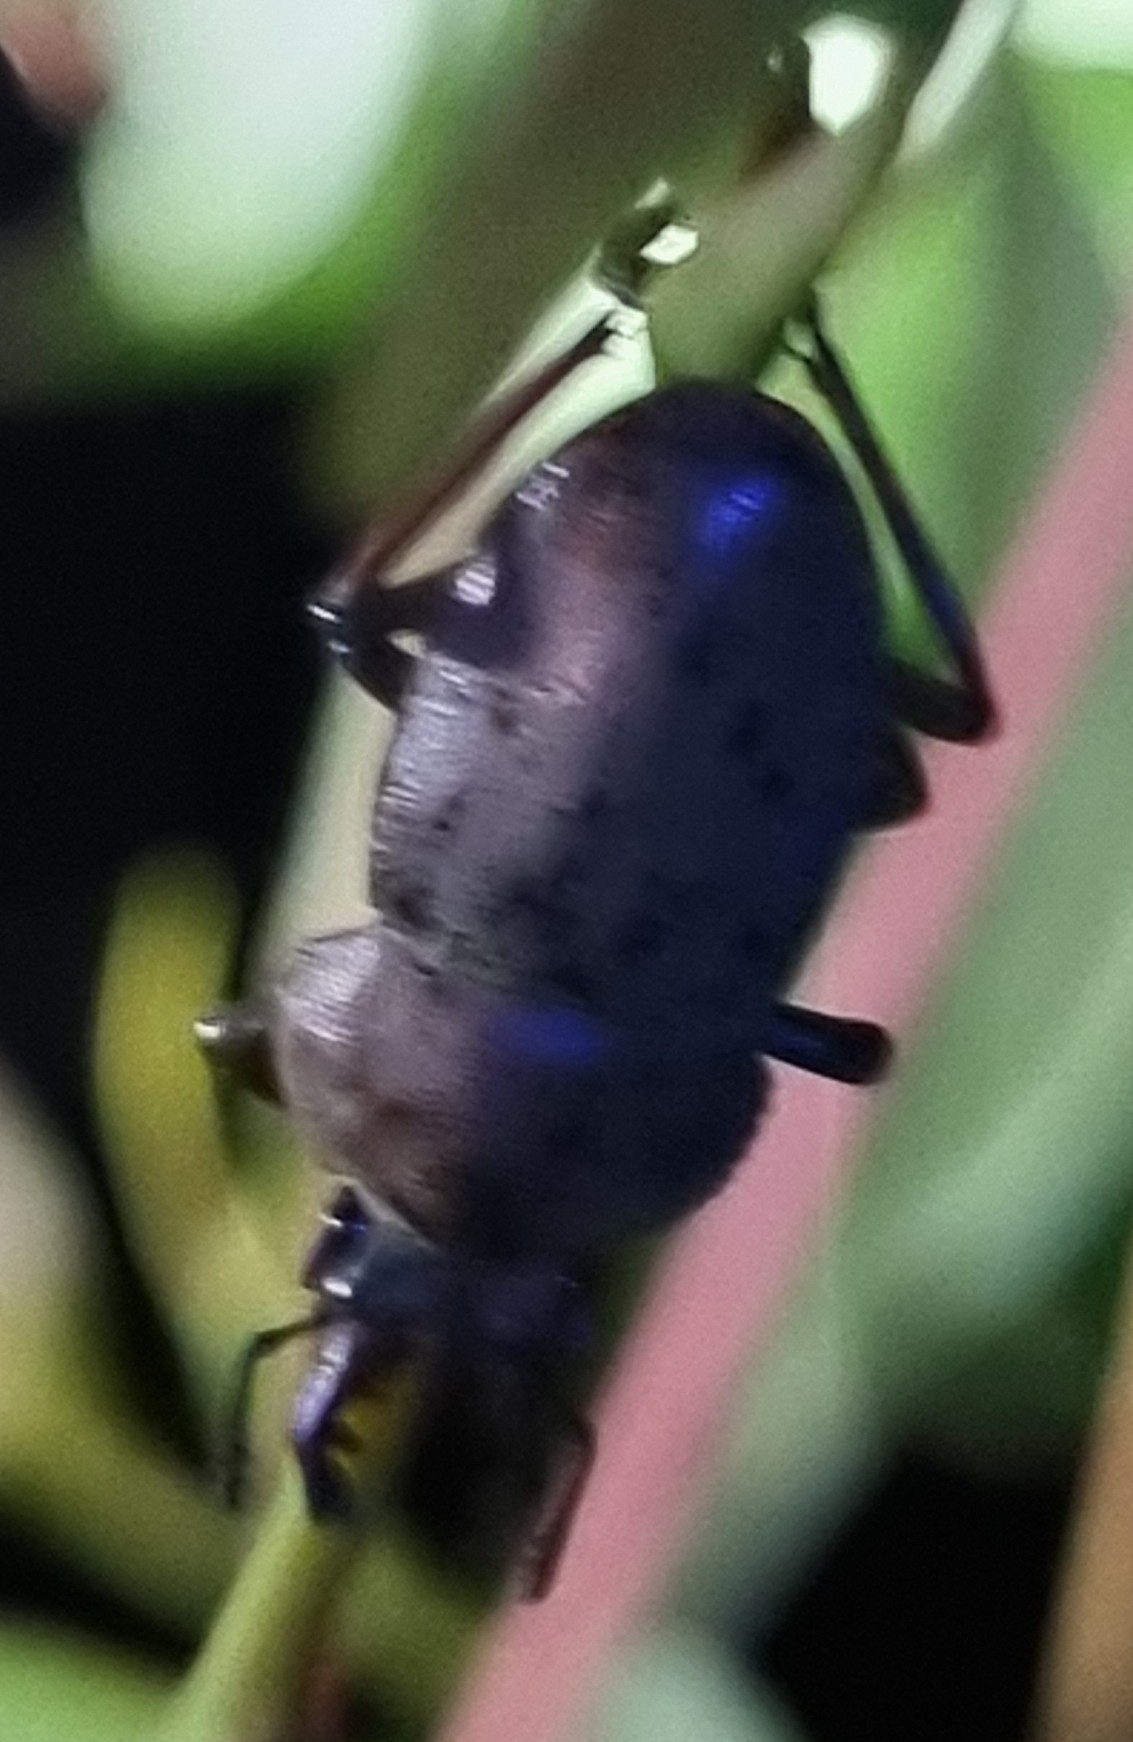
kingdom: Animalia
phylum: Arthropoda
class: Insecta
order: Coleoptera
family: Lucanidae
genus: Cacostomus
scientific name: Cacostomus squamosus
